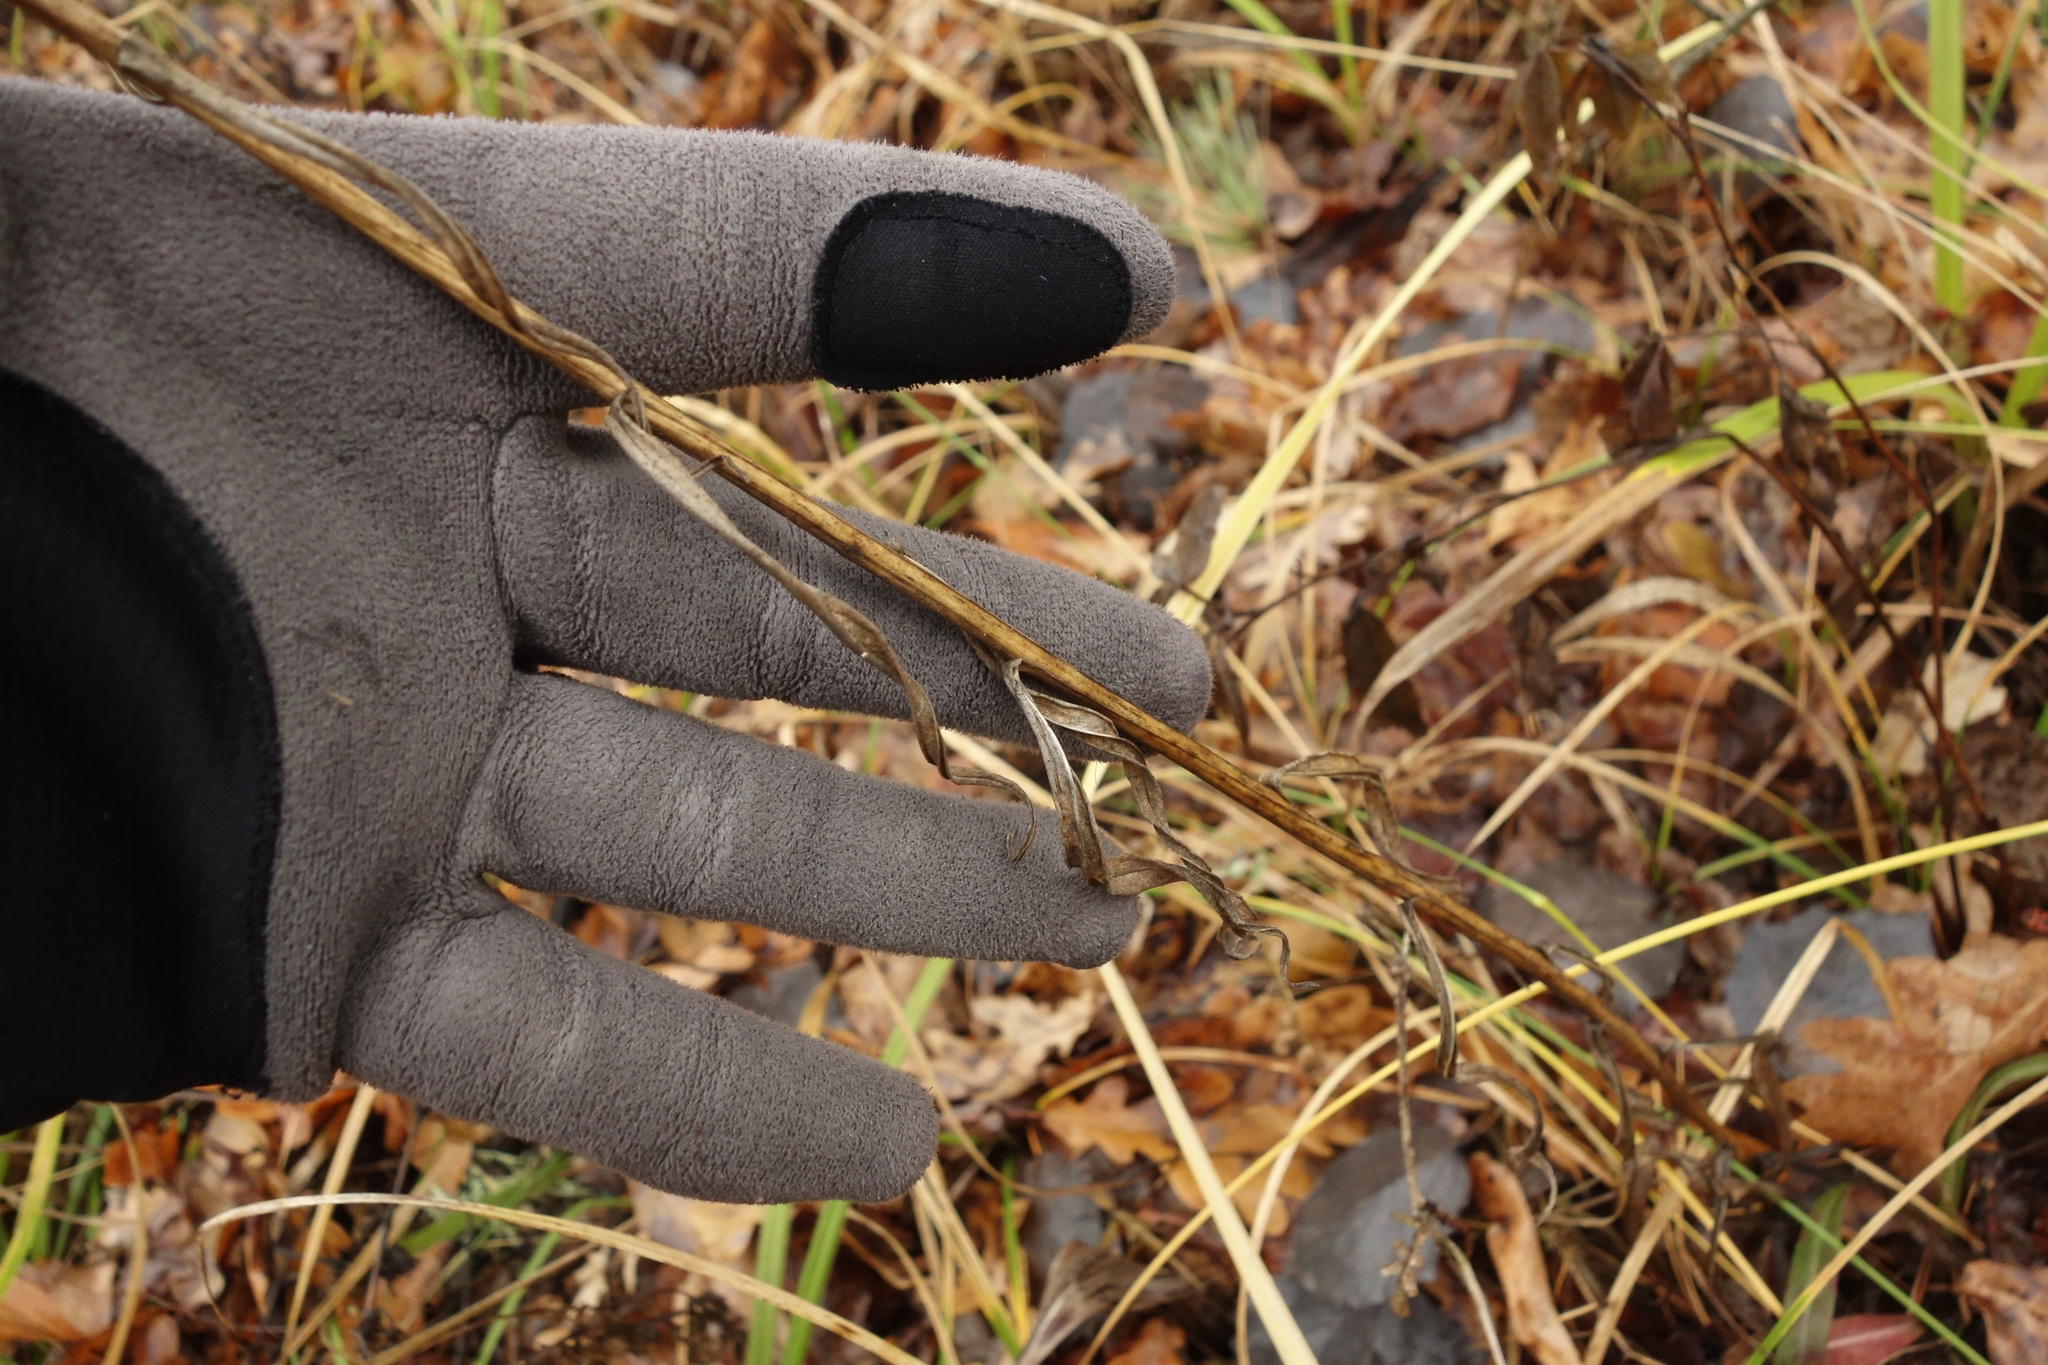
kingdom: Plantae
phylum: Tracheophyta
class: Magnoliopsida
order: Asterales
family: Campanulaceae
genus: Campanula
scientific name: Campanula persicifolia
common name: Peach-leaved bellflower
